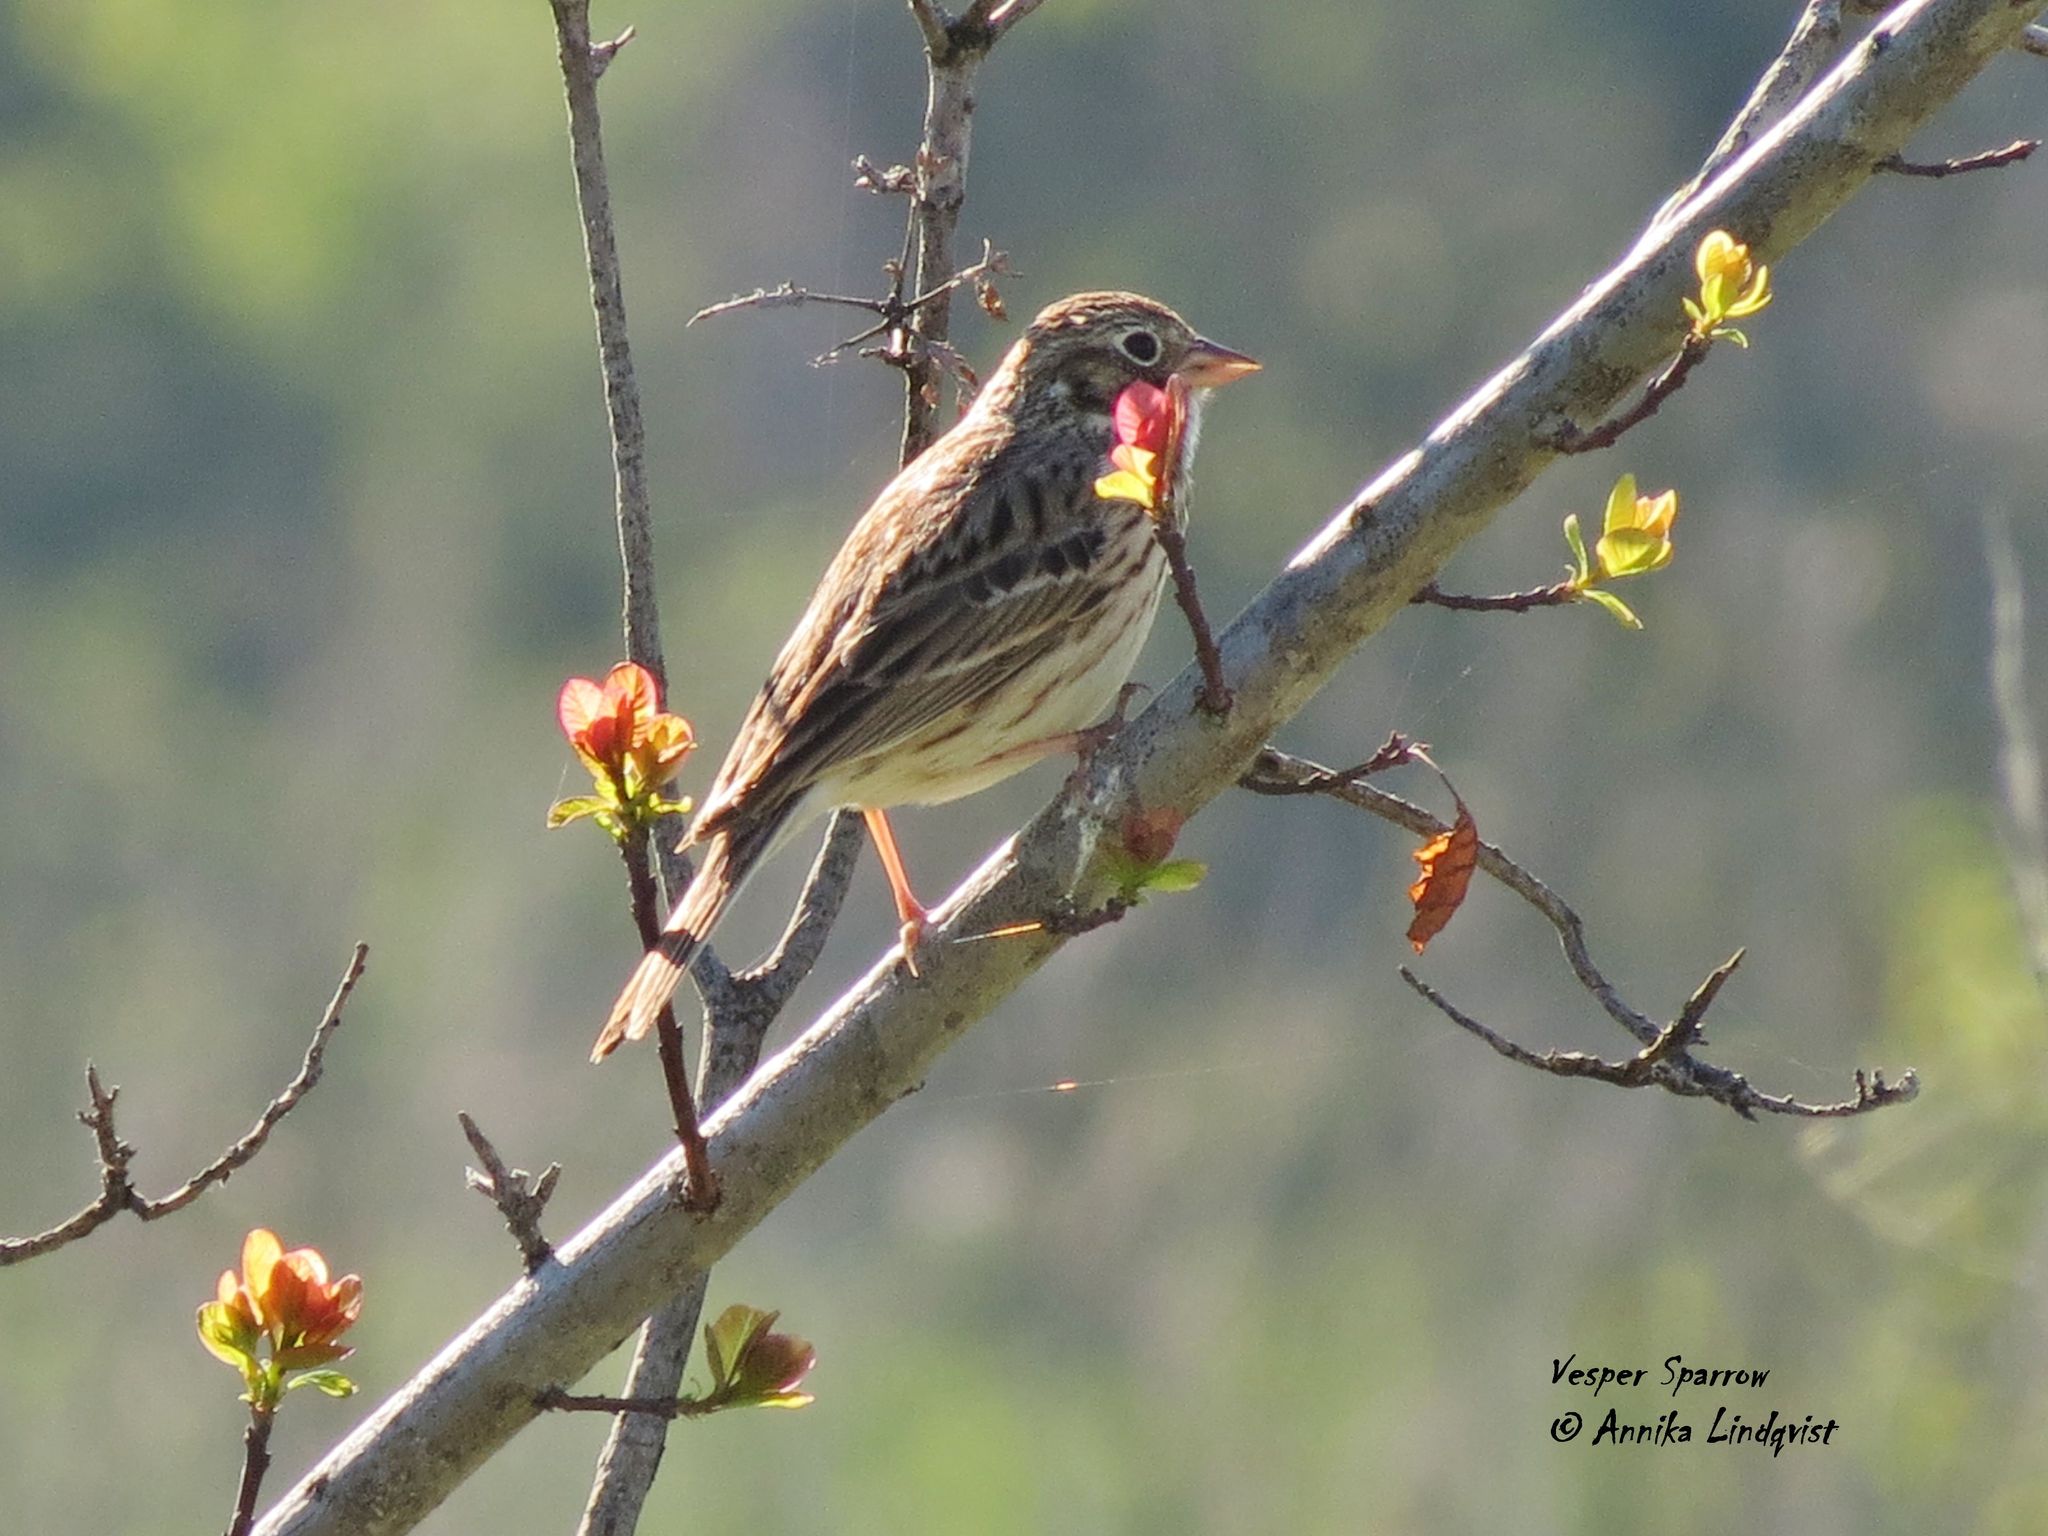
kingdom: Animalia
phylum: Chordata
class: Aves
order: Passeriformes
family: Passerellidae
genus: Pooecetes
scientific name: Pooecetes gramineus
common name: Vesper sparrow
